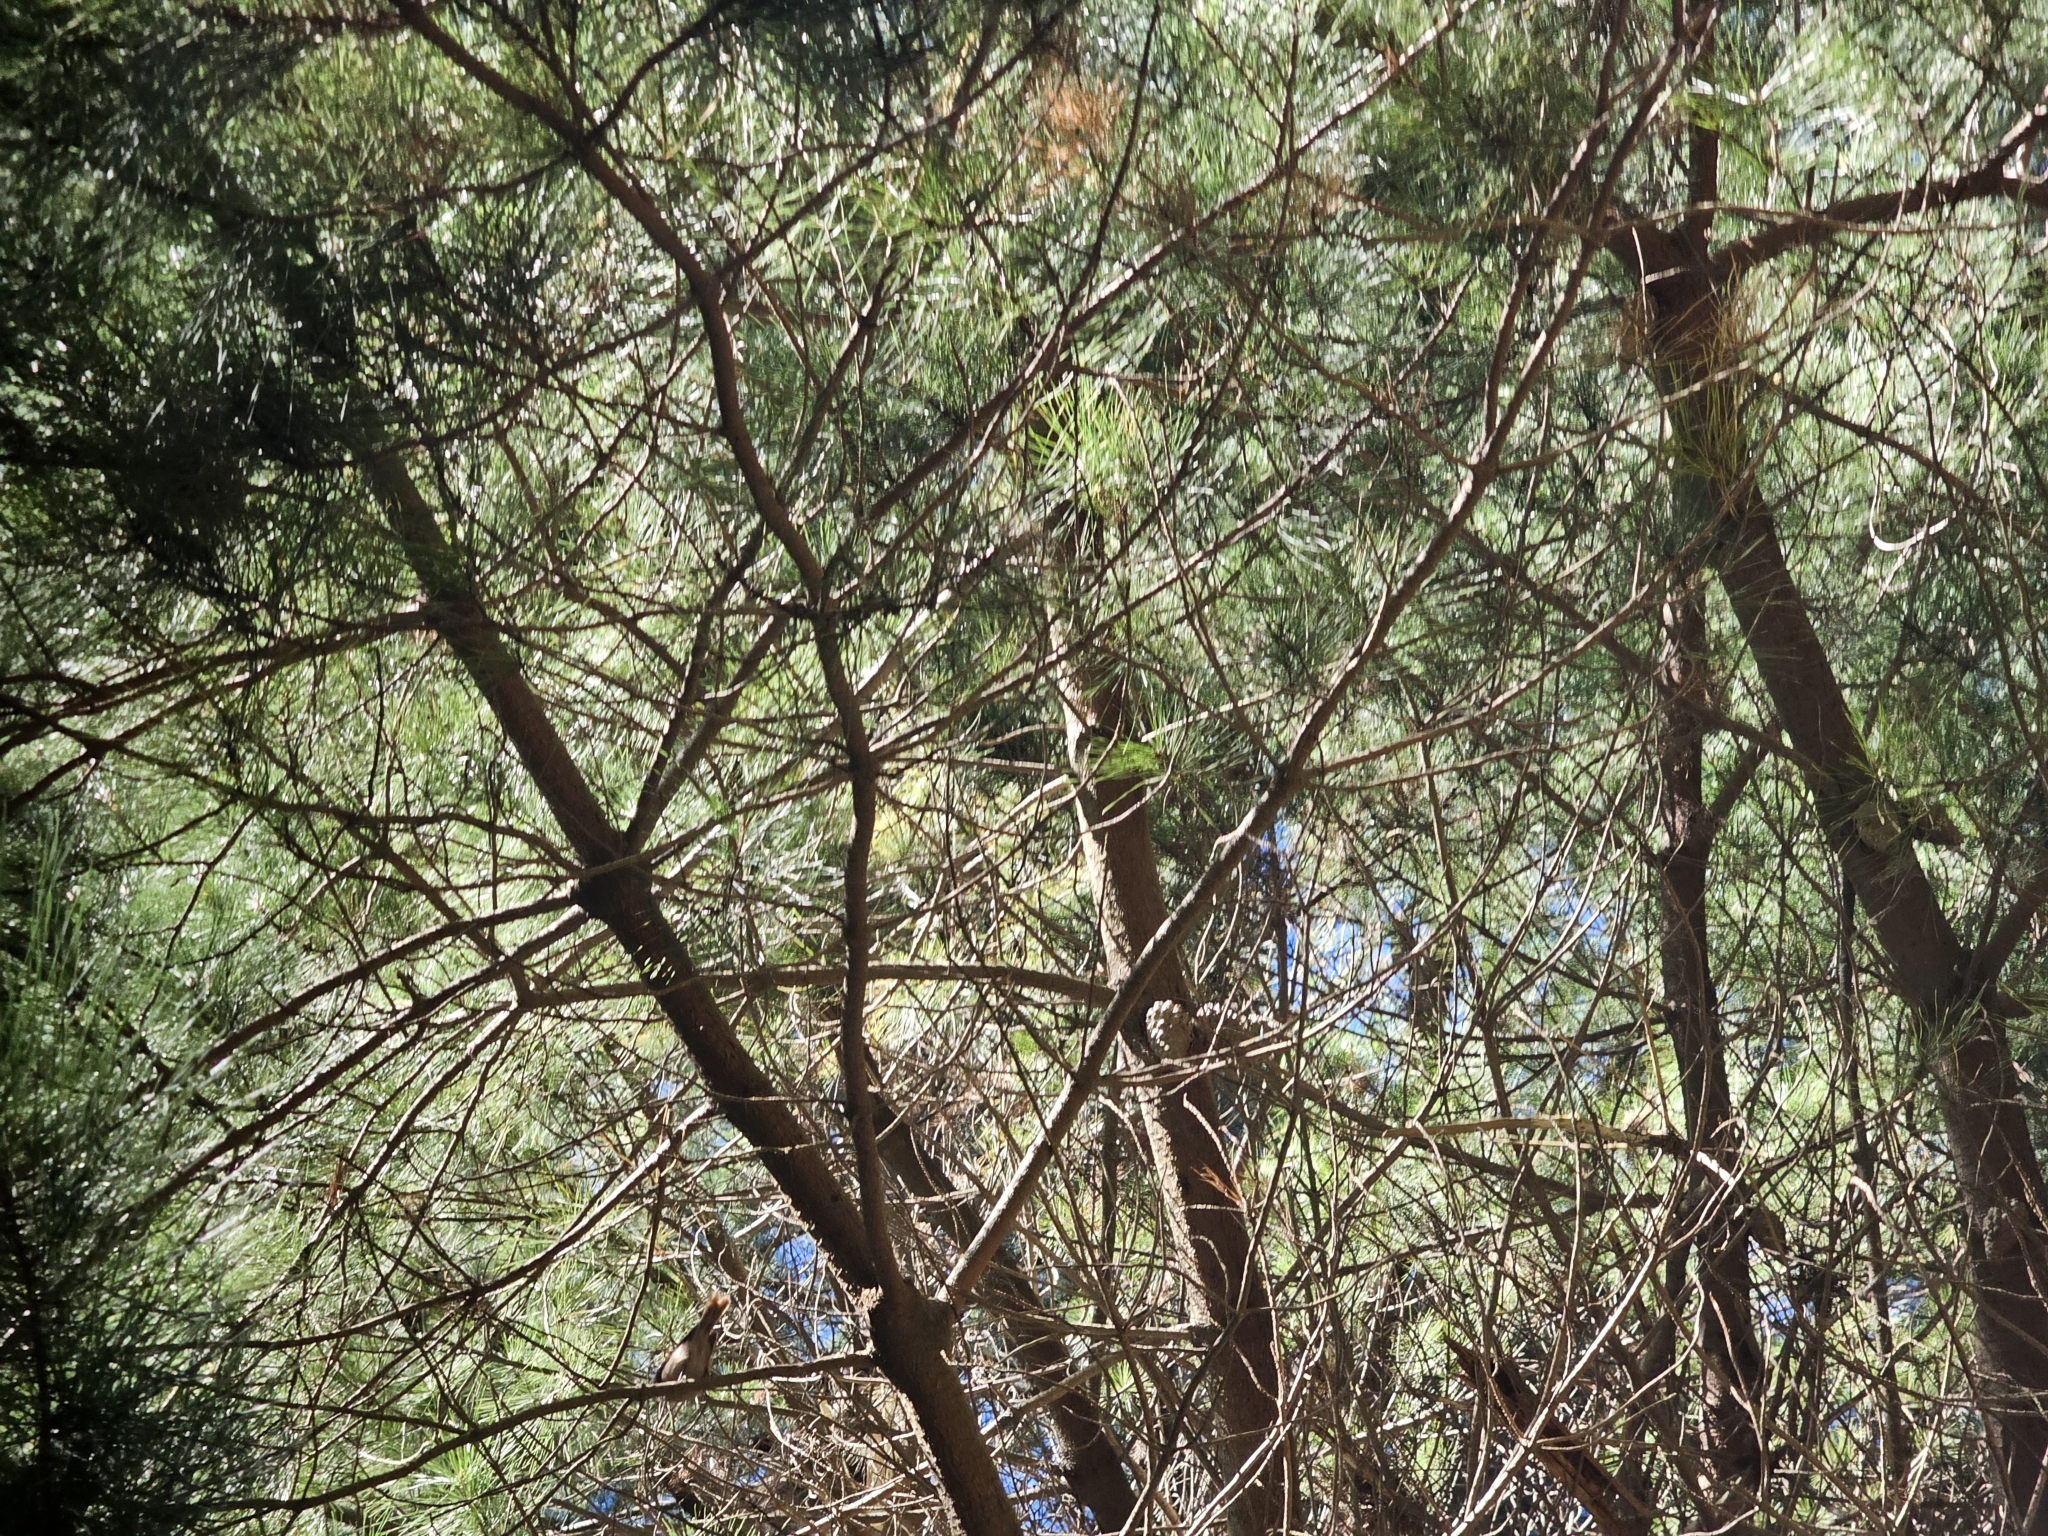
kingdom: Animalia
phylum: Chordata
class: Aves
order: Passeriformes
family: Acanthizidae
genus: Finschia
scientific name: Finschia novaeseelandiae
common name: Pipipi
